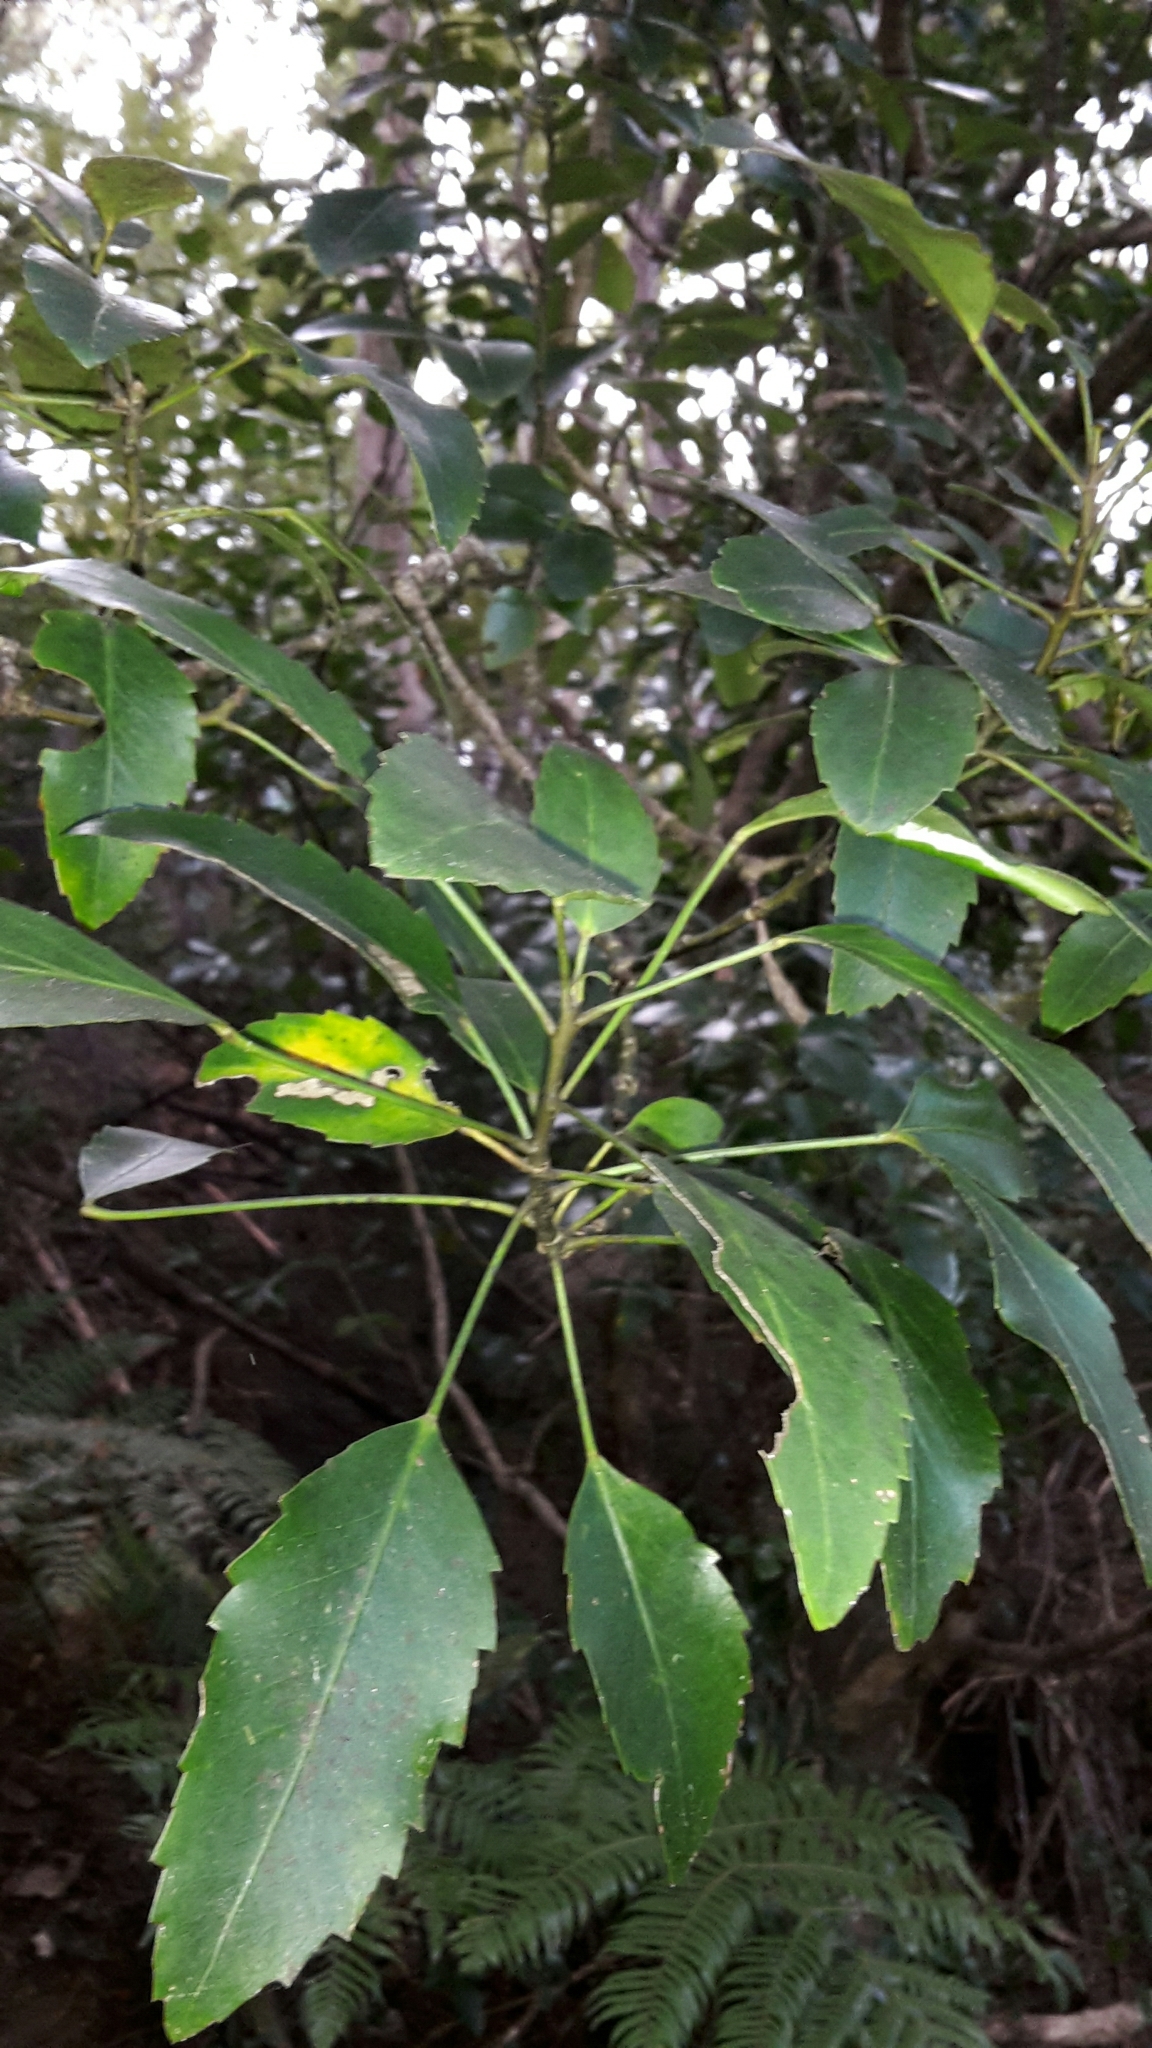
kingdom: Plantae
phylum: Tracheophyta
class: Magnoliopsida
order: Apiales
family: Araliaceae
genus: Pseudopanax
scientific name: Pseudopanax gilliesii
